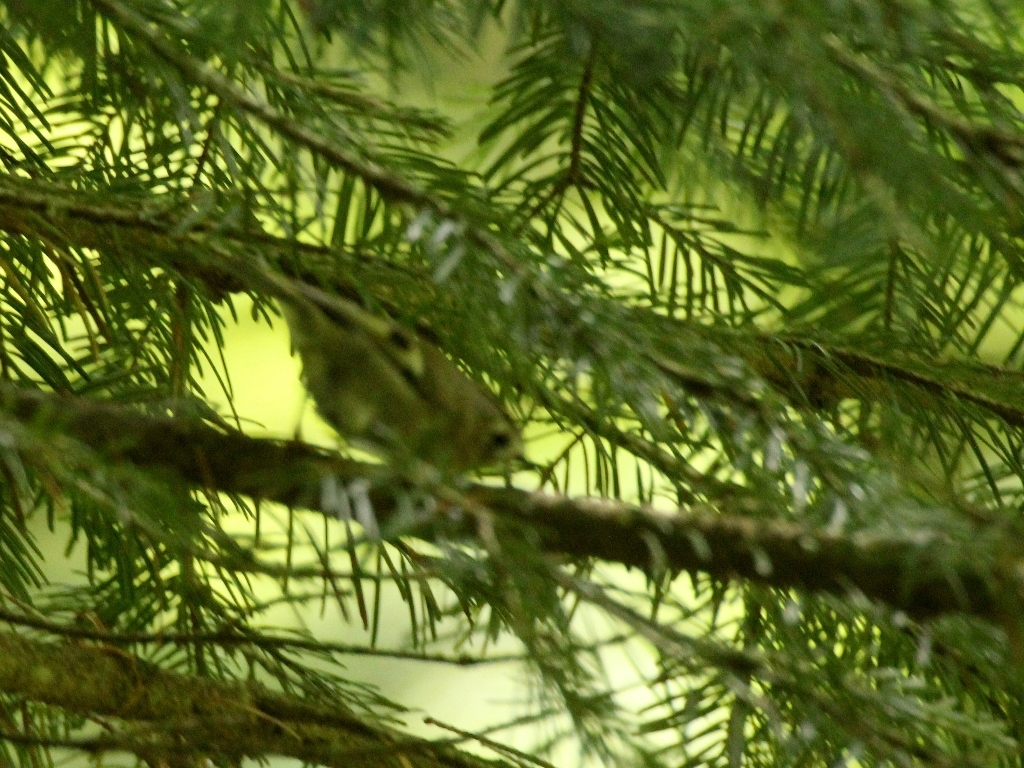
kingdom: Animalia
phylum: Chordata
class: Aves
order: Passeriformes
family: Regulidae
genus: Regulus
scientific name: Regulus regulus
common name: Goldcrest
